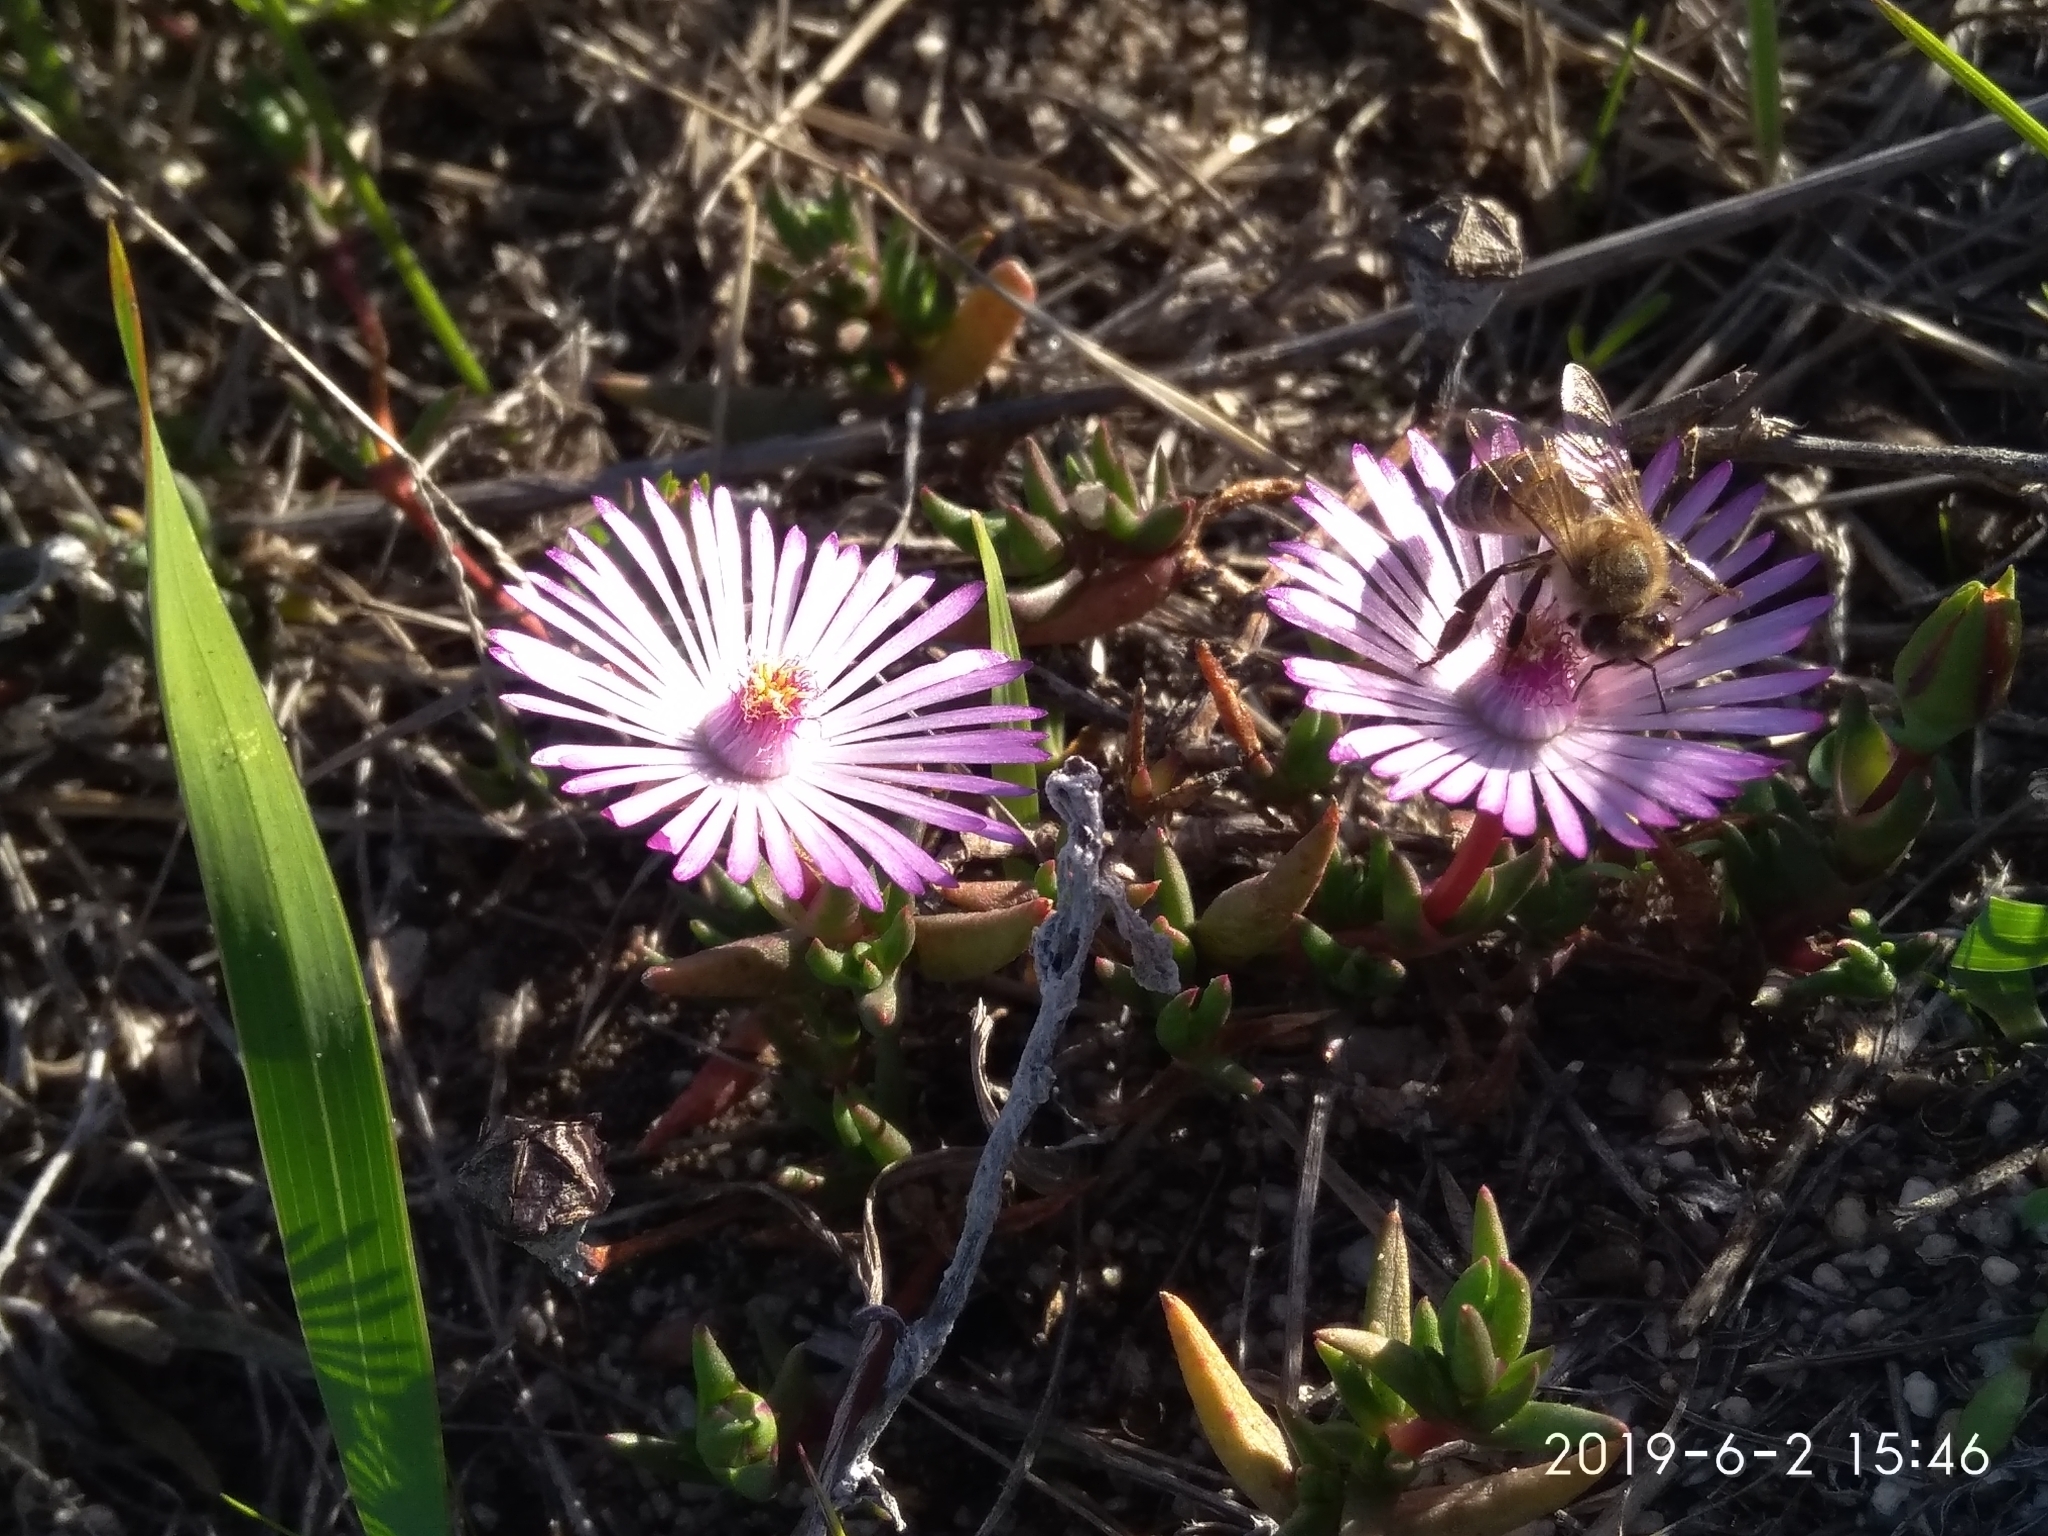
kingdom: Plantae
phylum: Tracheophyta
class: Magnoliopsida
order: Caryophyllales
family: Aizoaceae
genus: Lampranthus
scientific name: Lampranthus filicaulis
